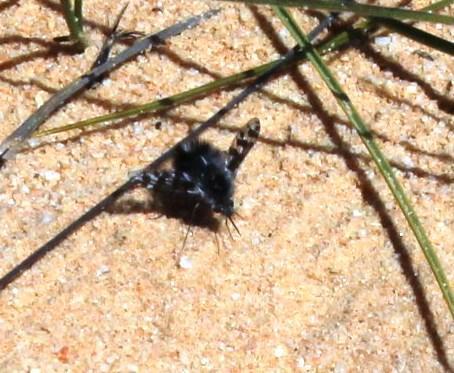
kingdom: Animalia
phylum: Arthropoda
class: Insecta
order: Diptera
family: Bombyliidae
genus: Australoechus
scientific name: Australoechus megaspilus
